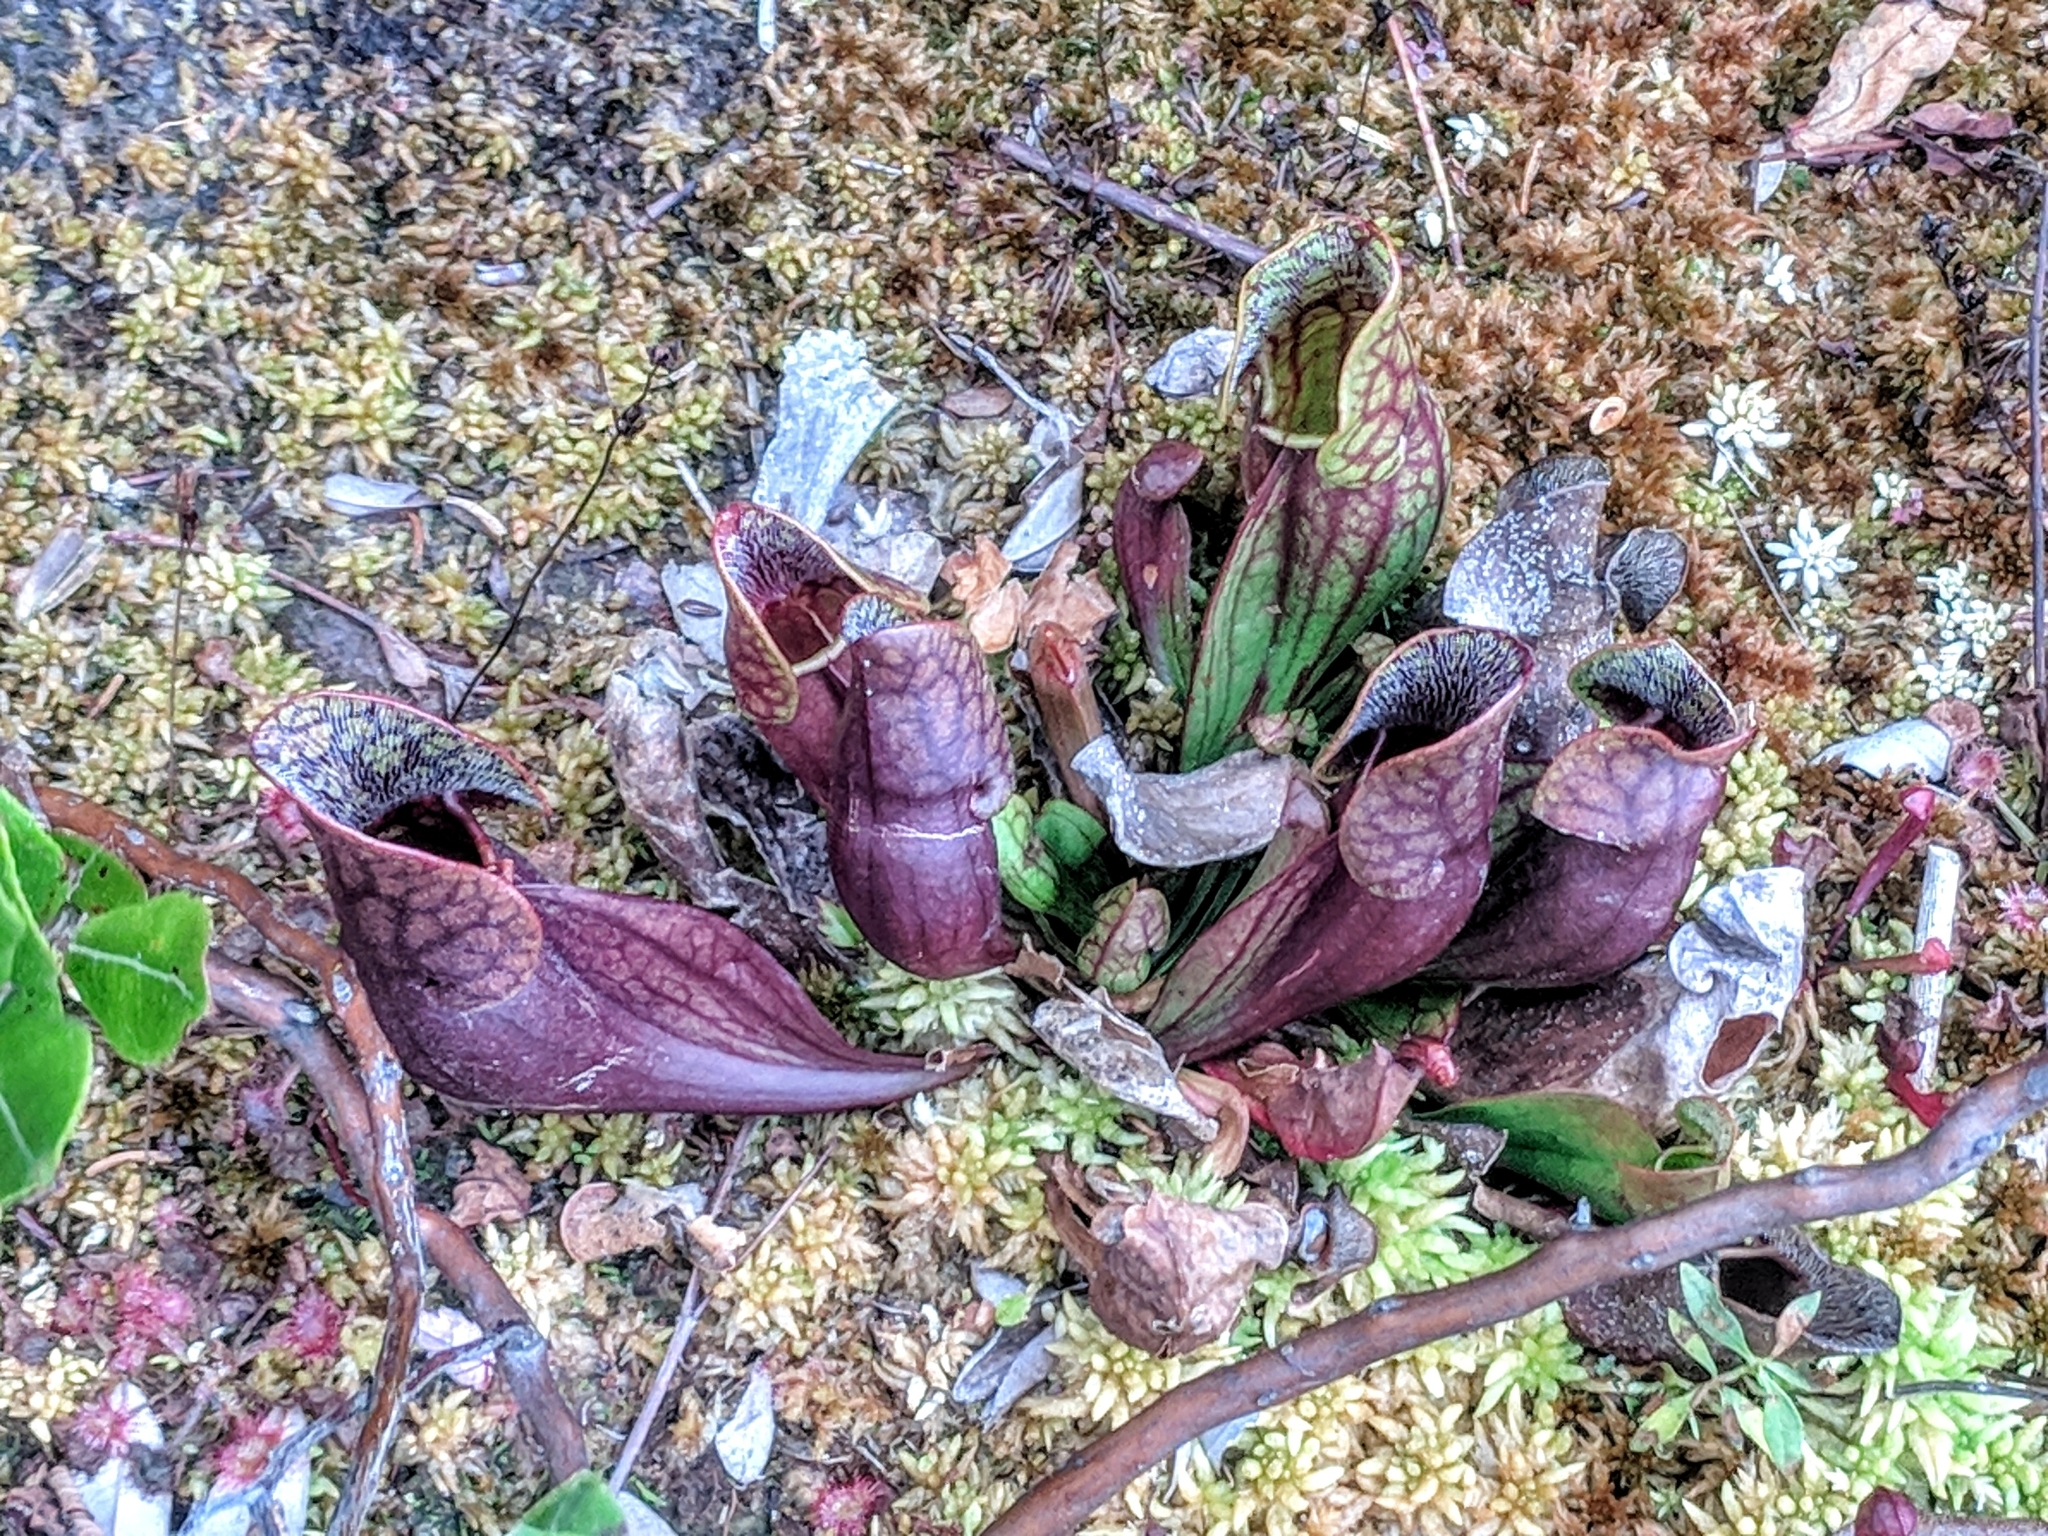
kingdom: Plantae
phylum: Tracheophyta
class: Magnoliopsida
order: Ericales
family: Sarraceniaceae
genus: Sarracenia
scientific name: Sarracenia purpurea
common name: Pitcherplant
